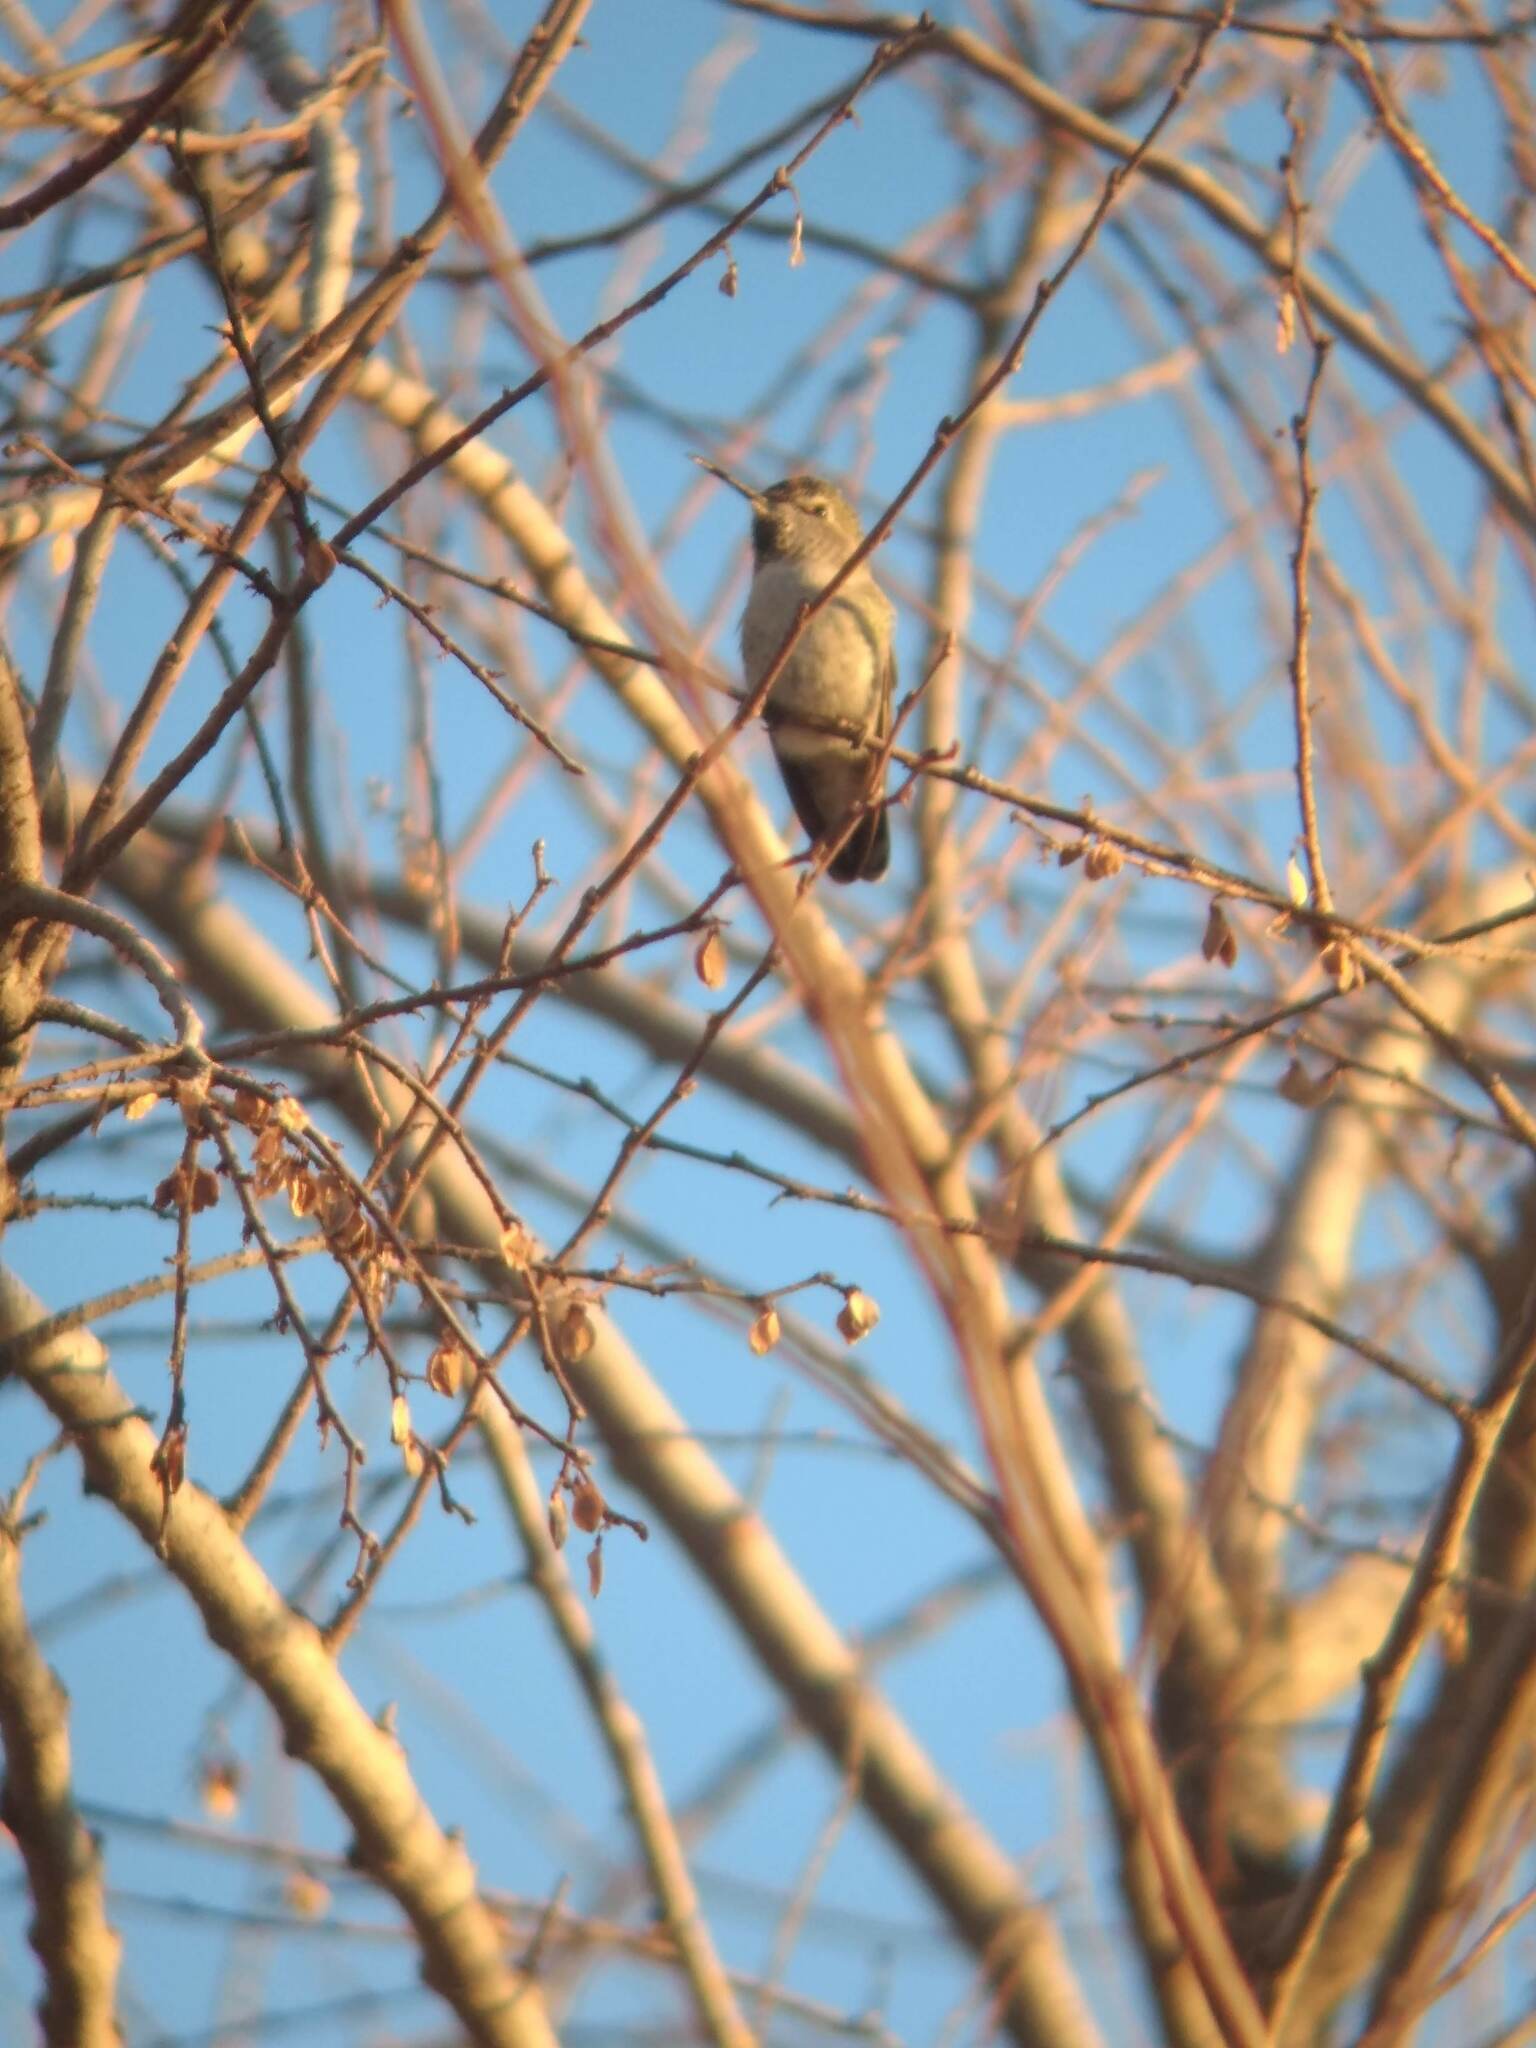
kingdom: Animalia
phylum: Chordata
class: Aves
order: Apodiformes
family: Trochilidae
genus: Calypte
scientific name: Calypte anna
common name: Anna's hummingbird
